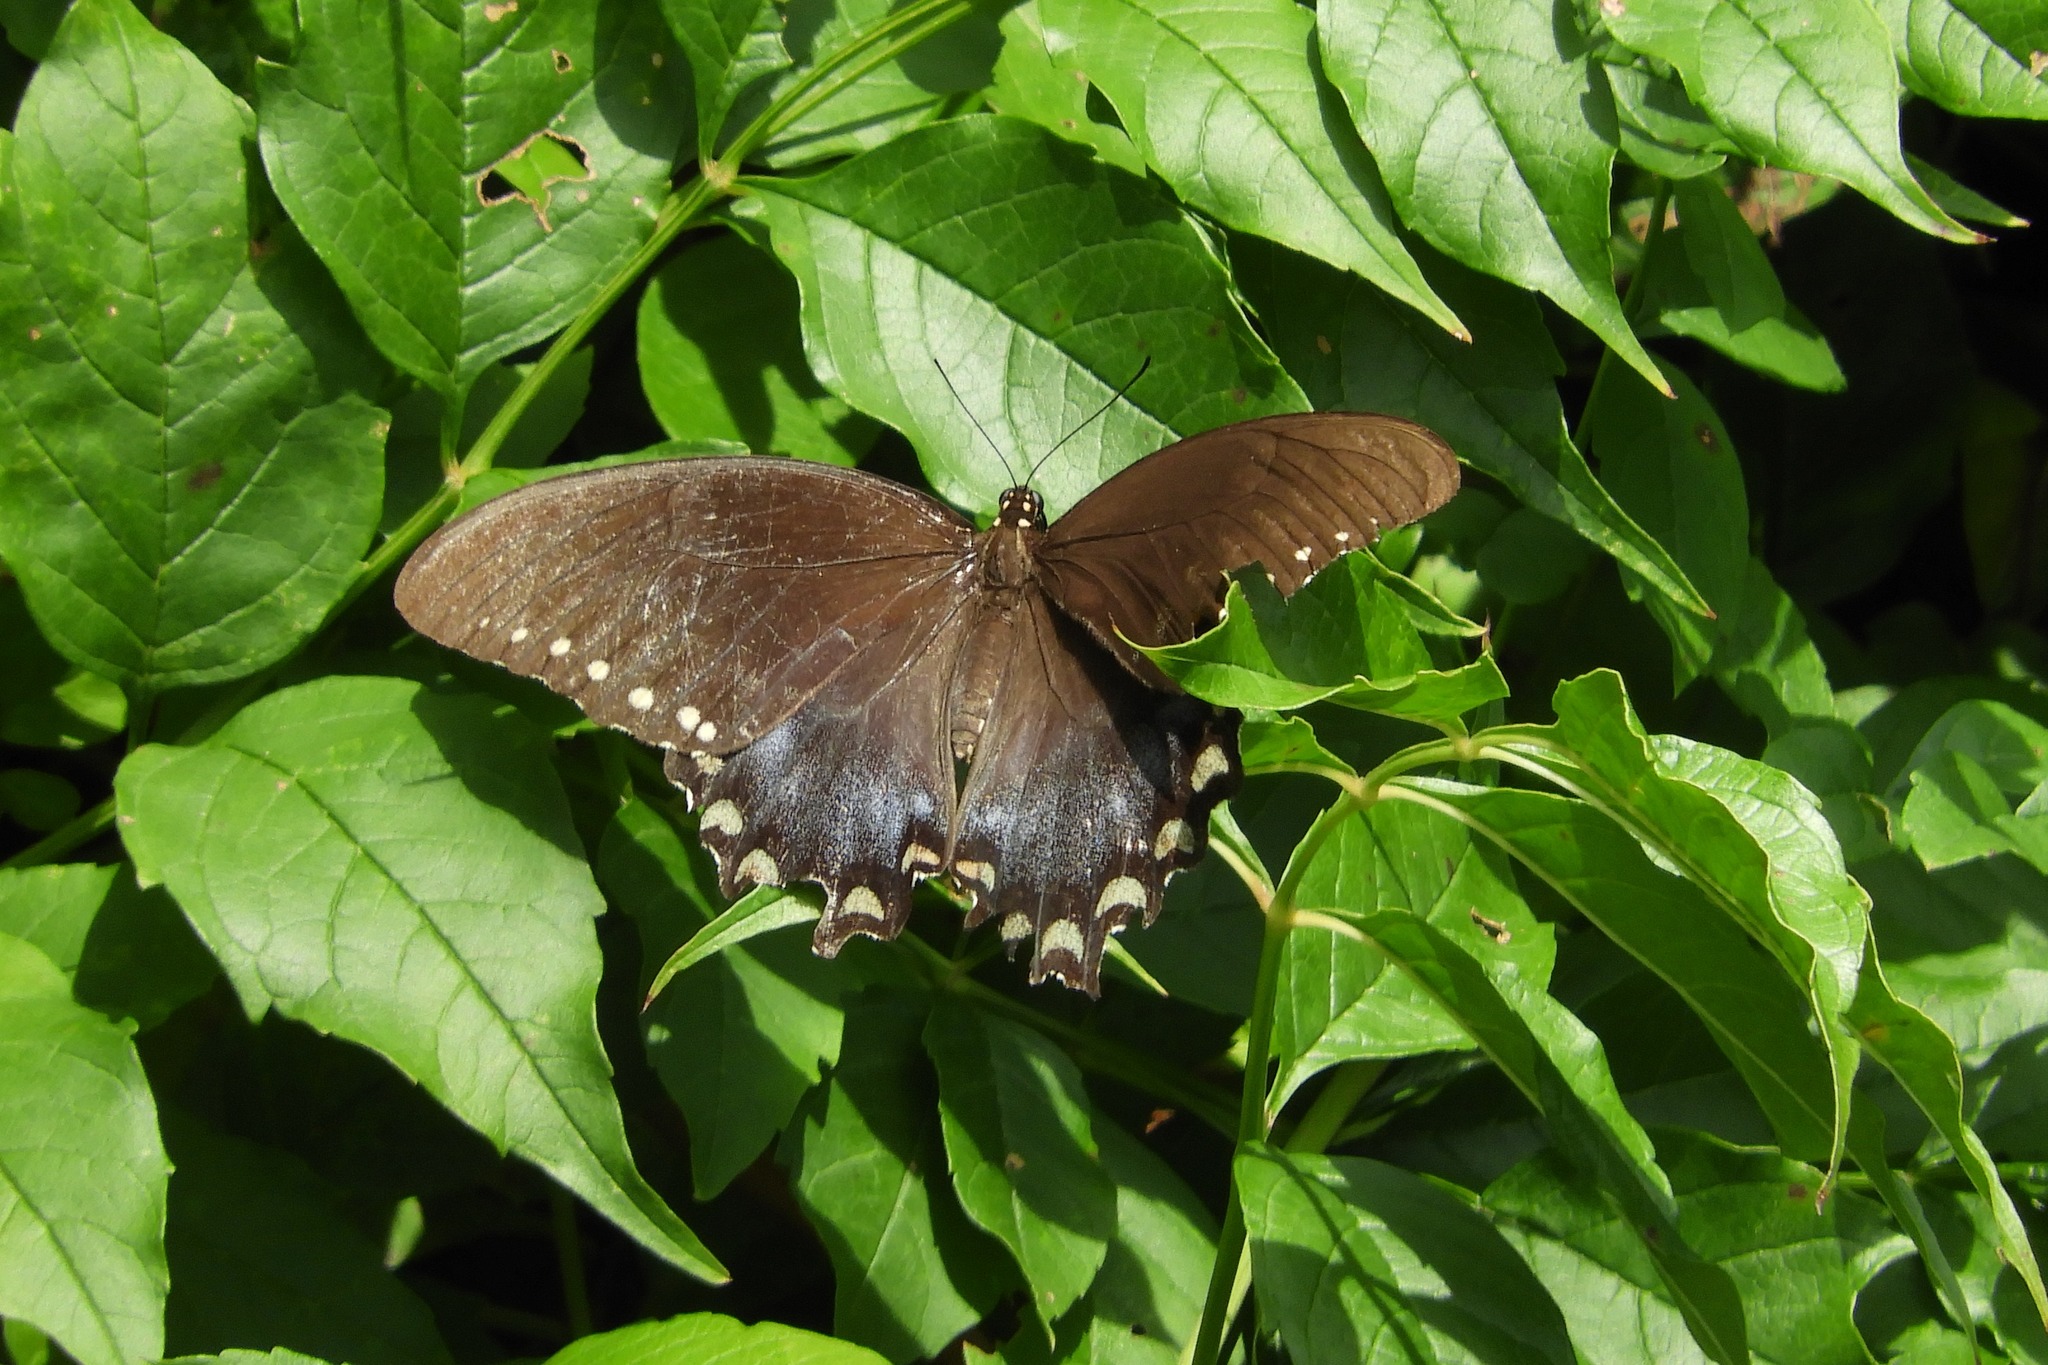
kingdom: Animalia
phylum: Arthropoda
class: Insecta
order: Lepidoptera
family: Papilionidae
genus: Papilio
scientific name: Papilio troilus
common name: Spicebush swallowtail
